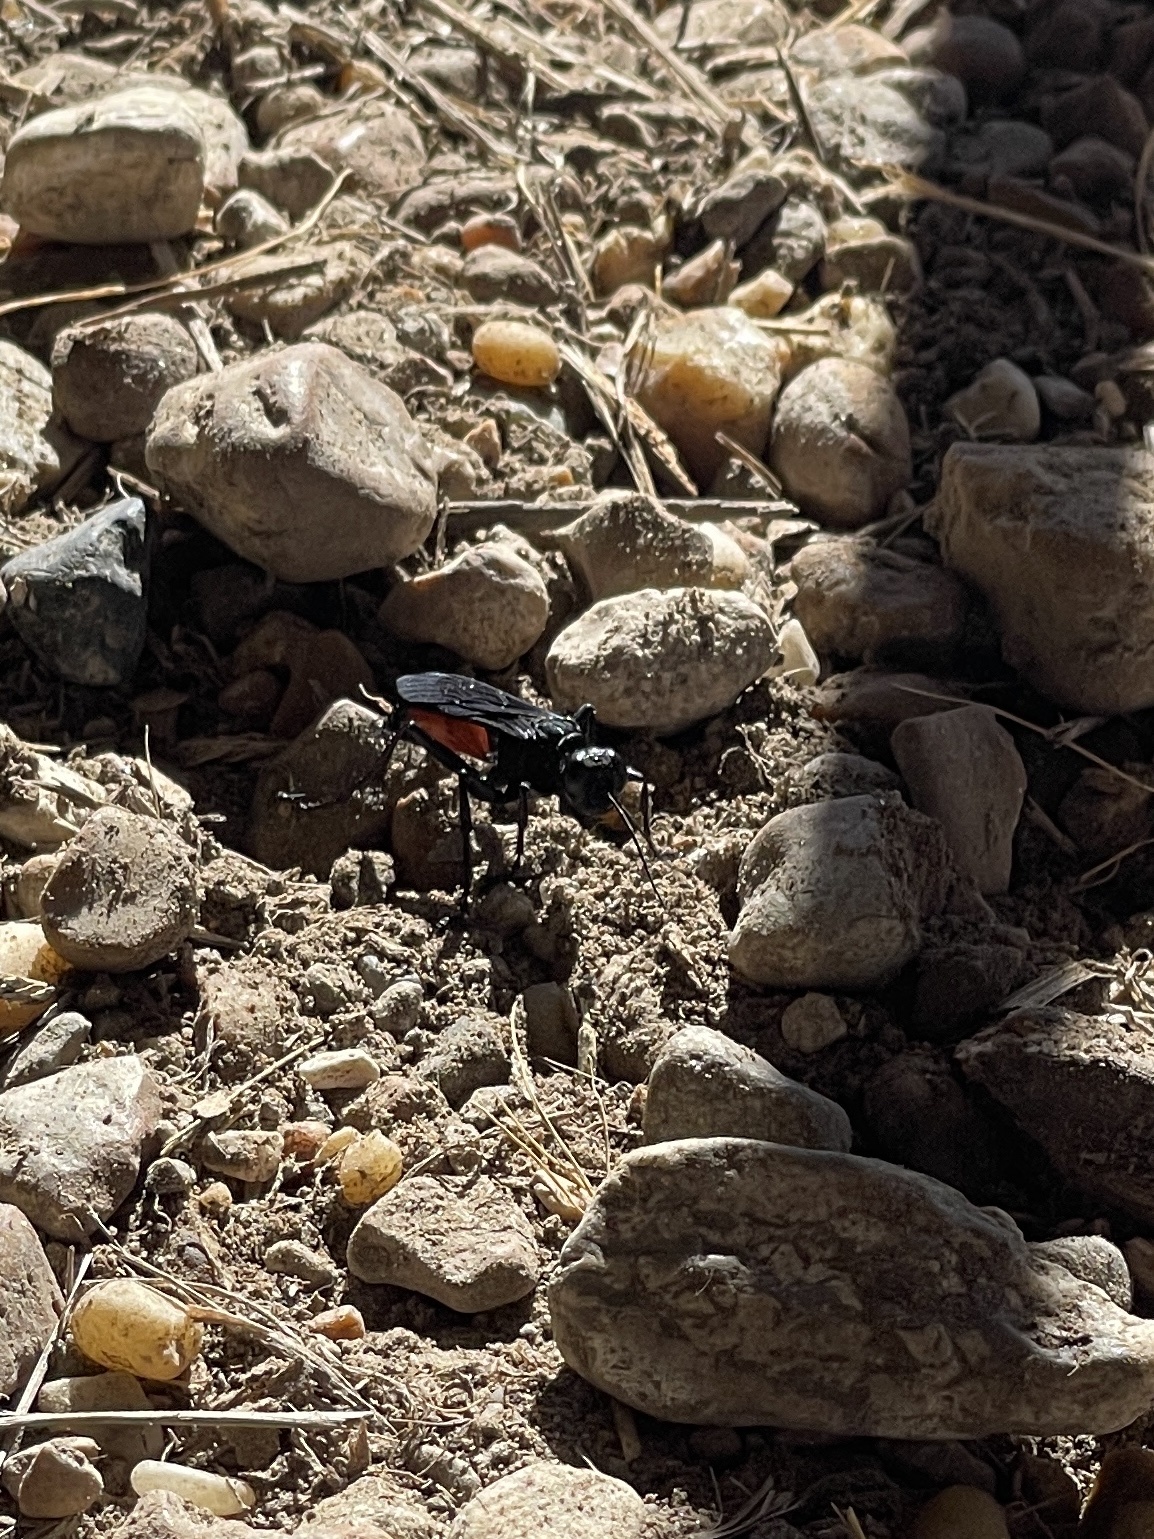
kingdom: Animalia
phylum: Arthropoda
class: Insecta
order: Hymenoptera
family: Sphecidae
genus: Palmodes
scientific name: Palmodes dimidiatus
